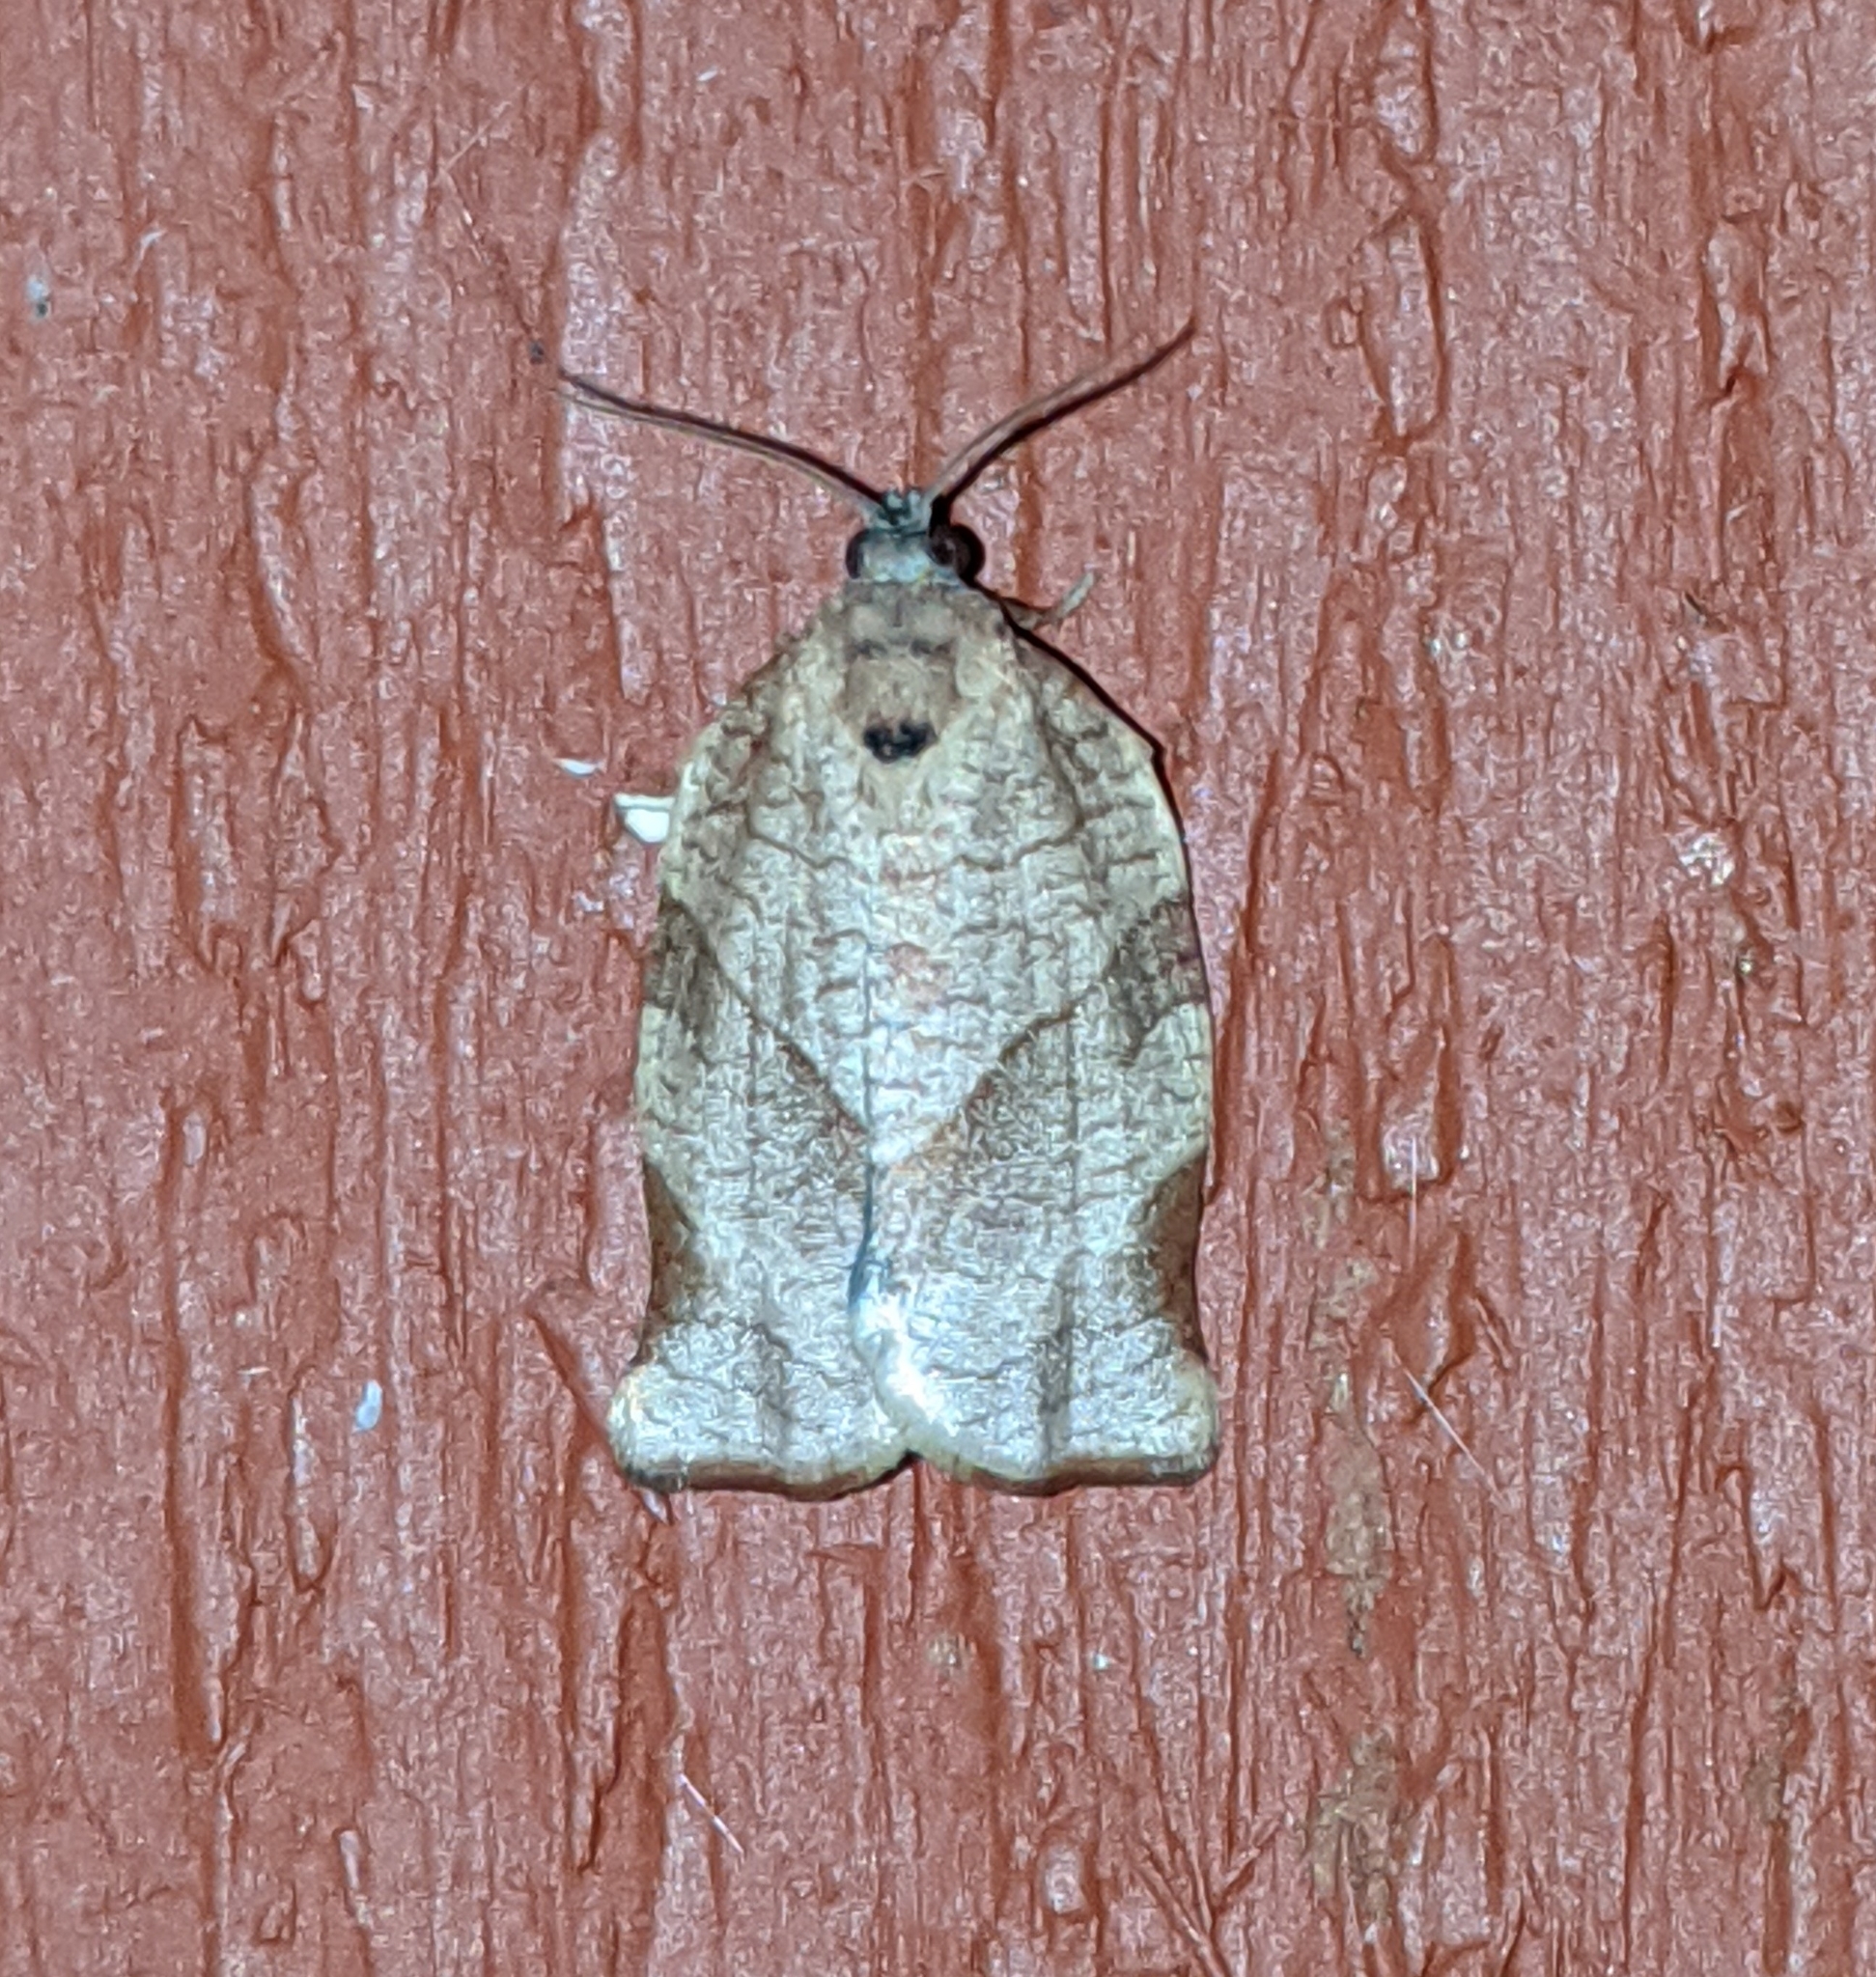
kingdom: Animalia
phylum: Arthropoda
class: Insecta
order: Lepidoptera
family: Tortricidae
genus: Choristoneura
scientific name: Choristoneura rosaceana
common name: Oblique-banded leafroller moth
